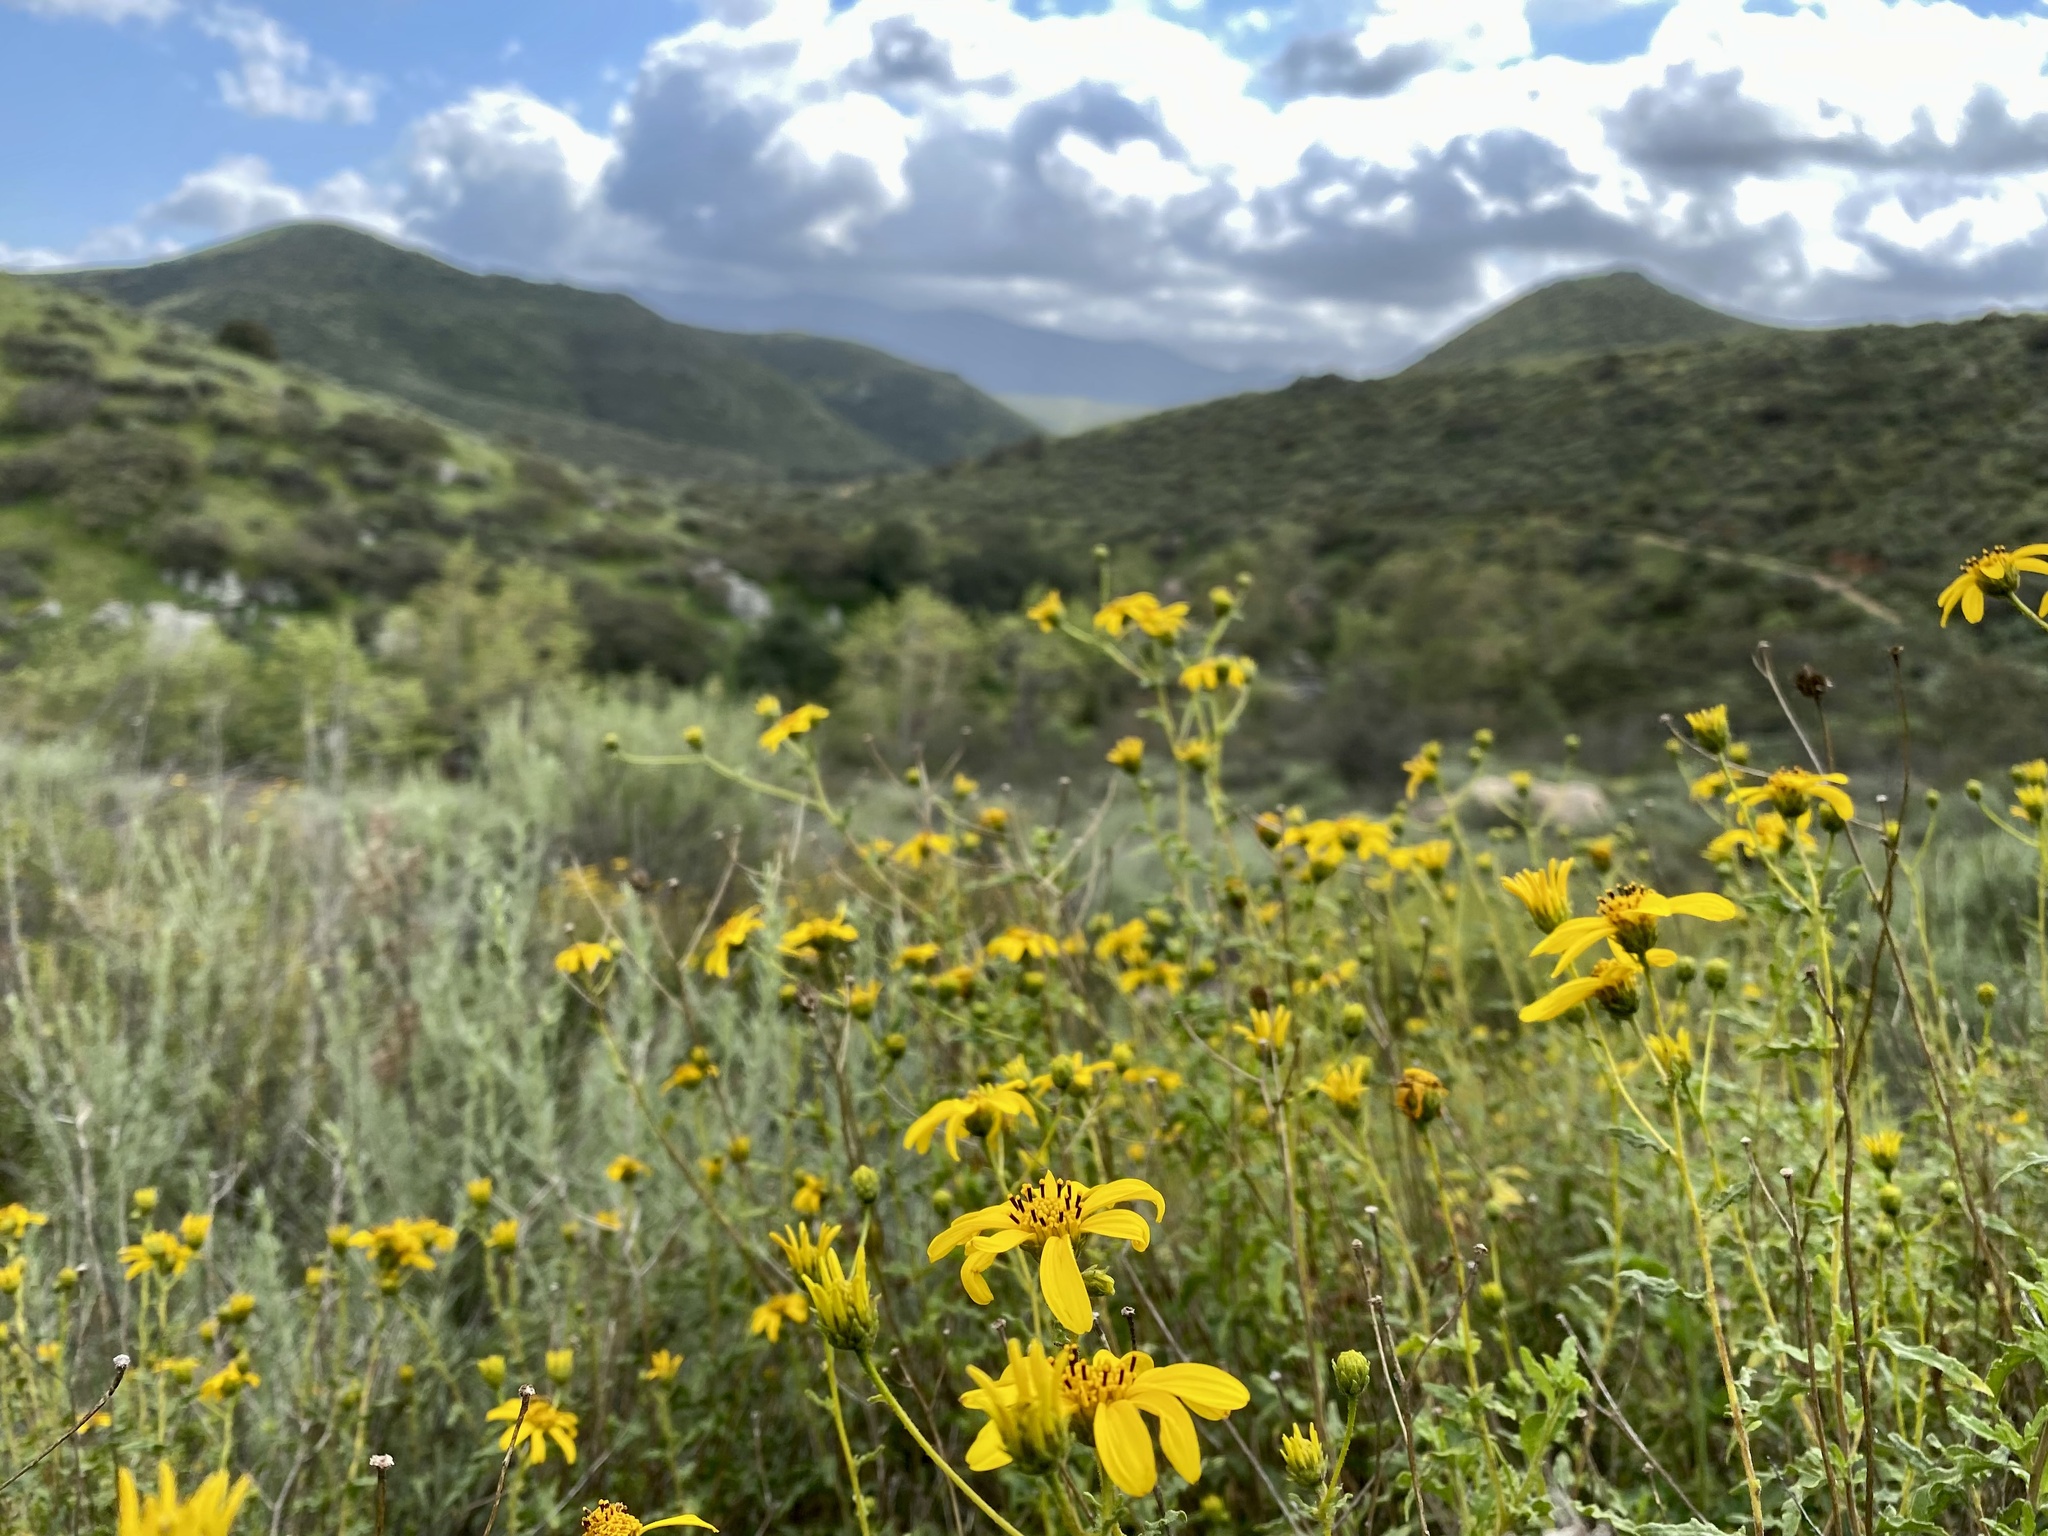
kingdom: Plantae
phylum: Tracheophyta
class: Magnoliopsida
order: Asterales
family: Asteraceae
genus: Bahiopsis
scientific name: Bahiopsis laciniata
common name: San diego county viguiera
